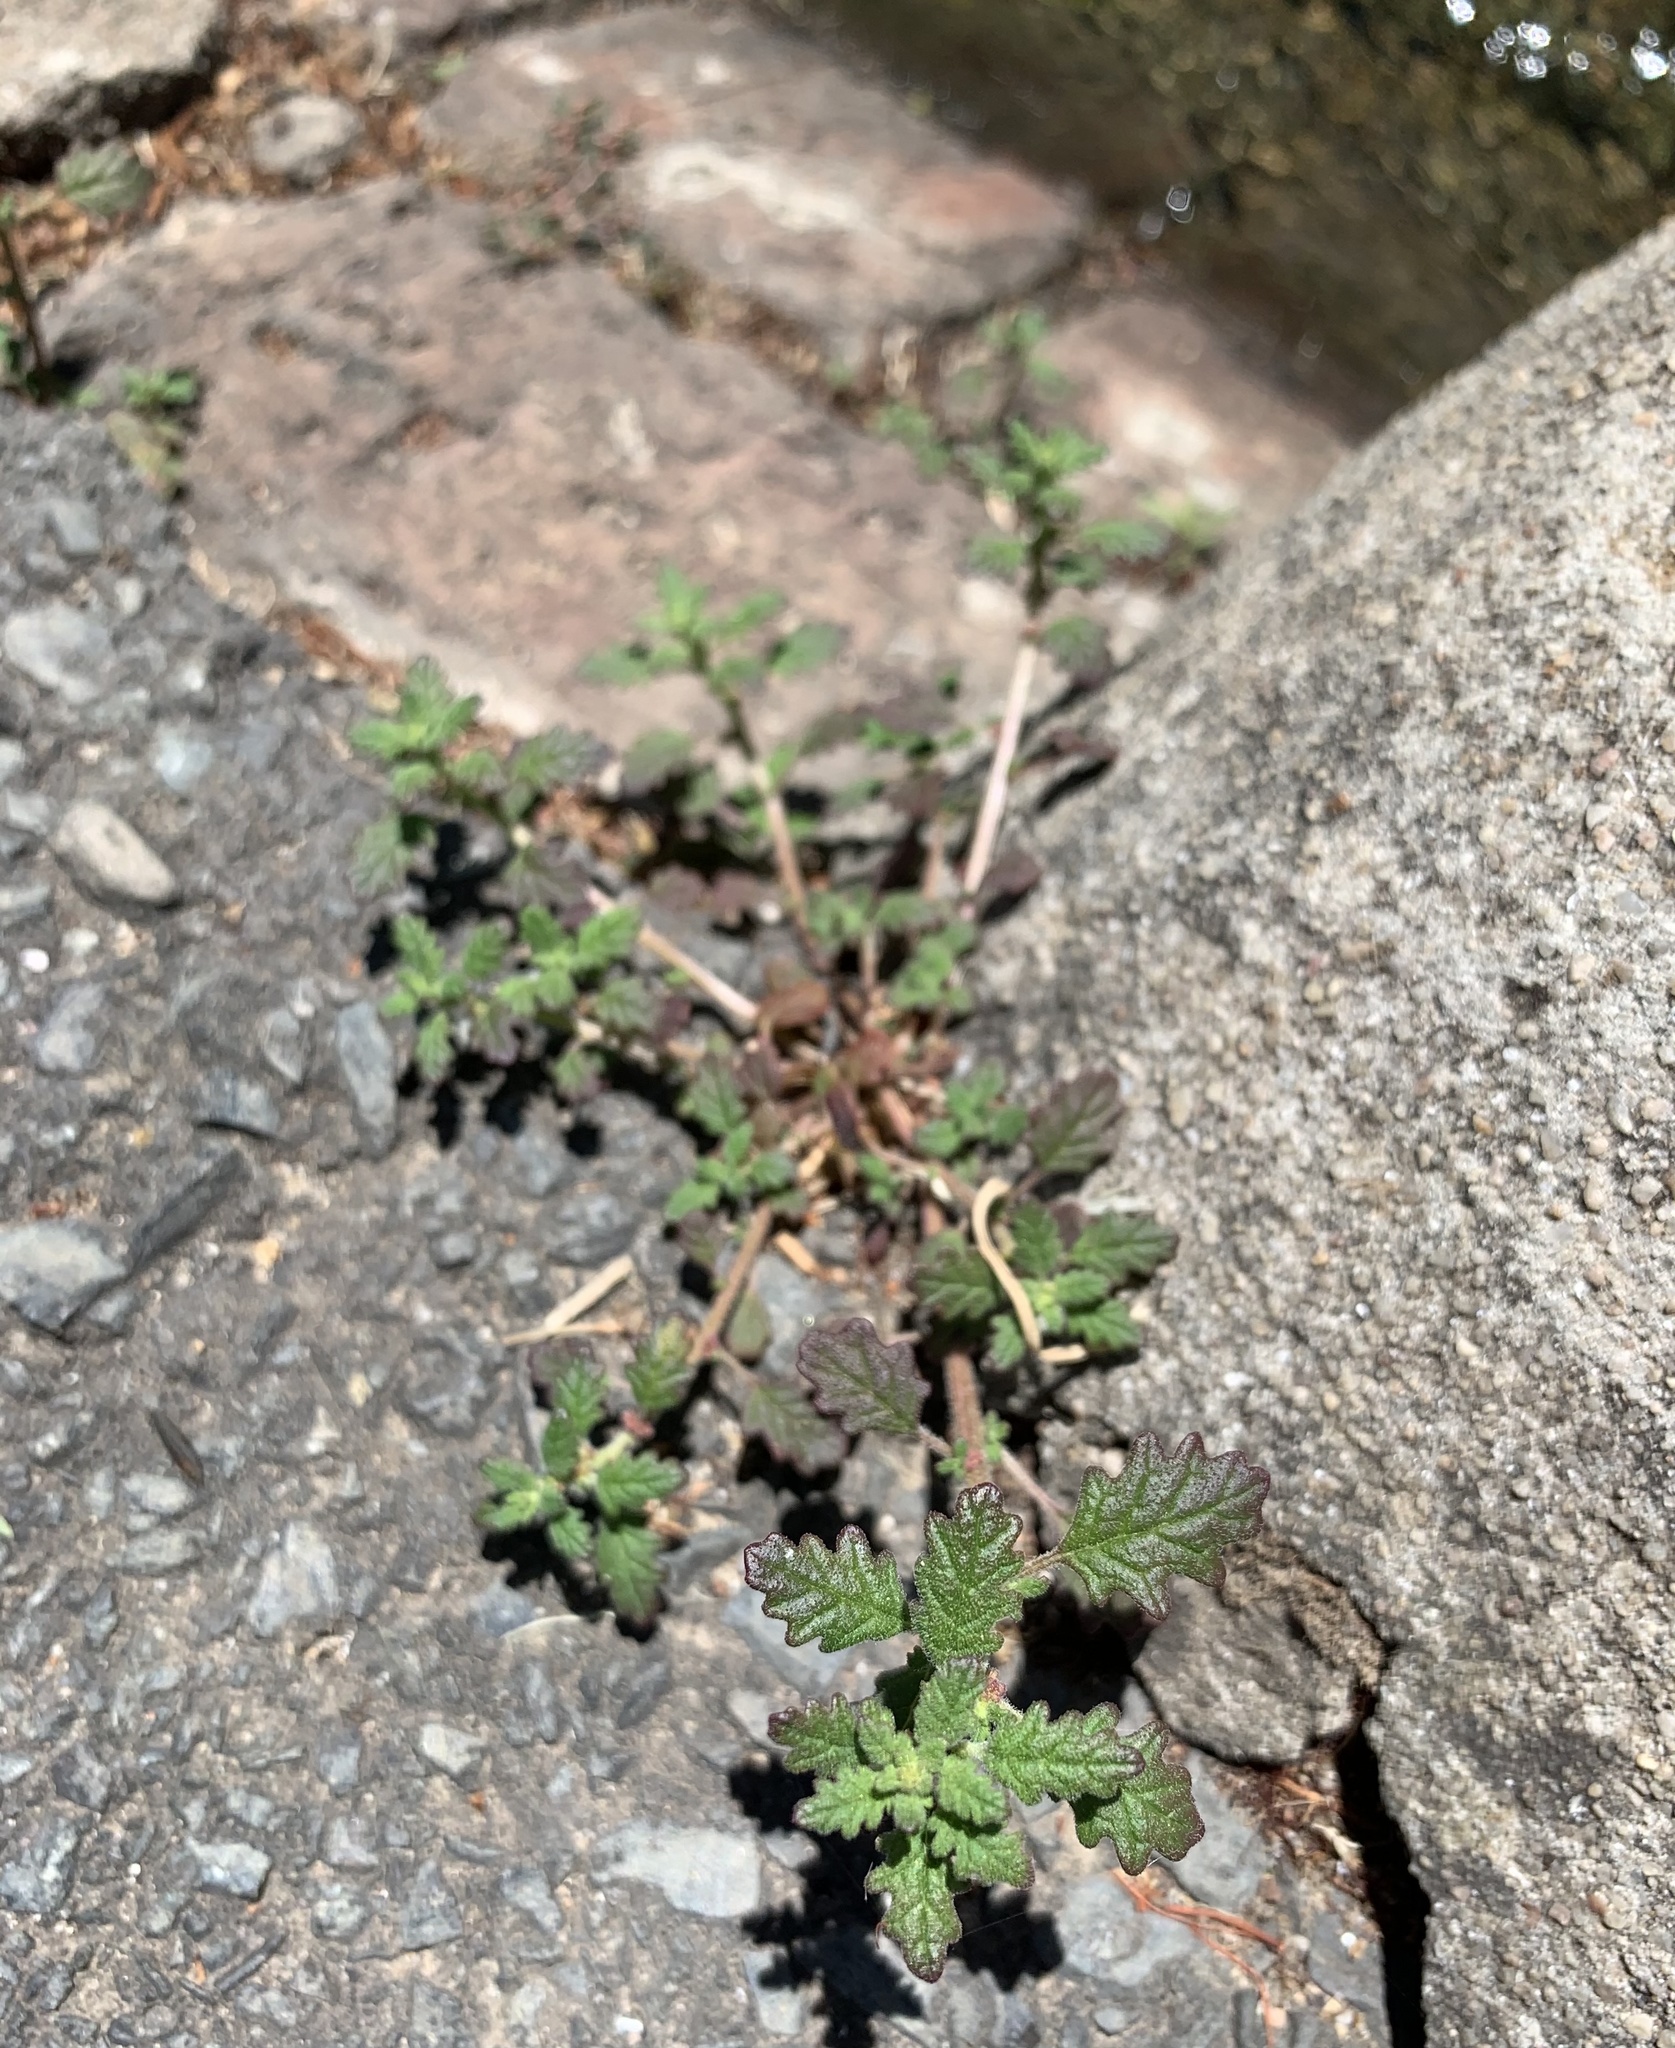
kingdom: Plantae
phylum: Tracheophyta
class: Magnoliopsida
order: Caryophyllales
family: Amaranthaceae
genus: Dysphania
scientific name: Dysphania pumilio
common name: Clammy goosefoot
